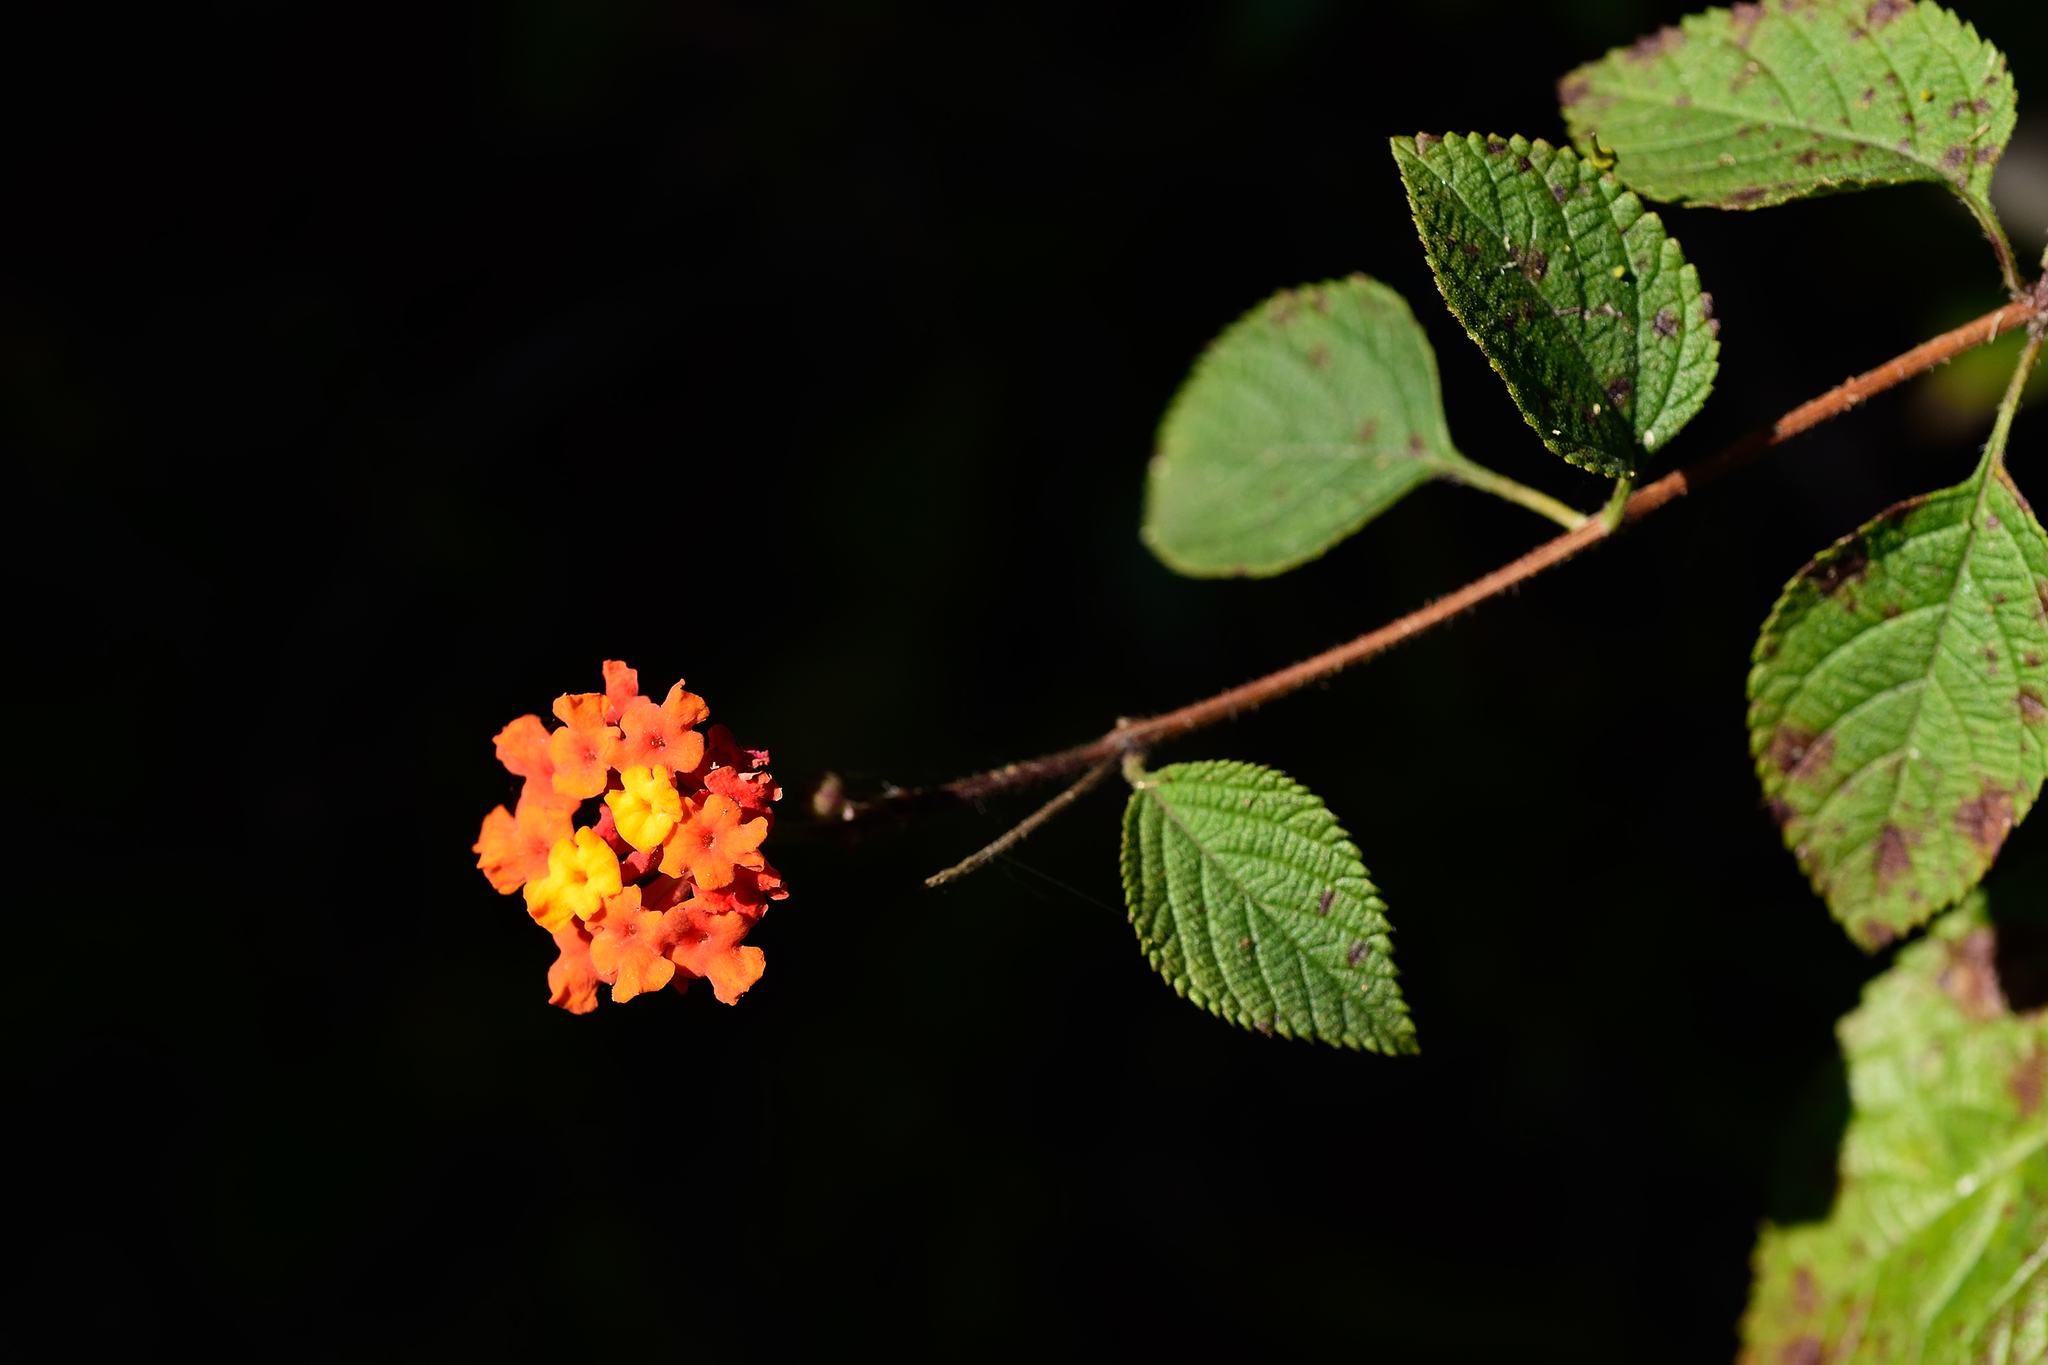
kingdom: Plantae
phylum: Tracheophyta
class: Magnoliopsida
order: Lamiales
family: Verbenaceae
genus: Lantana
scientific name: Lantana camara
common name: Lantana
